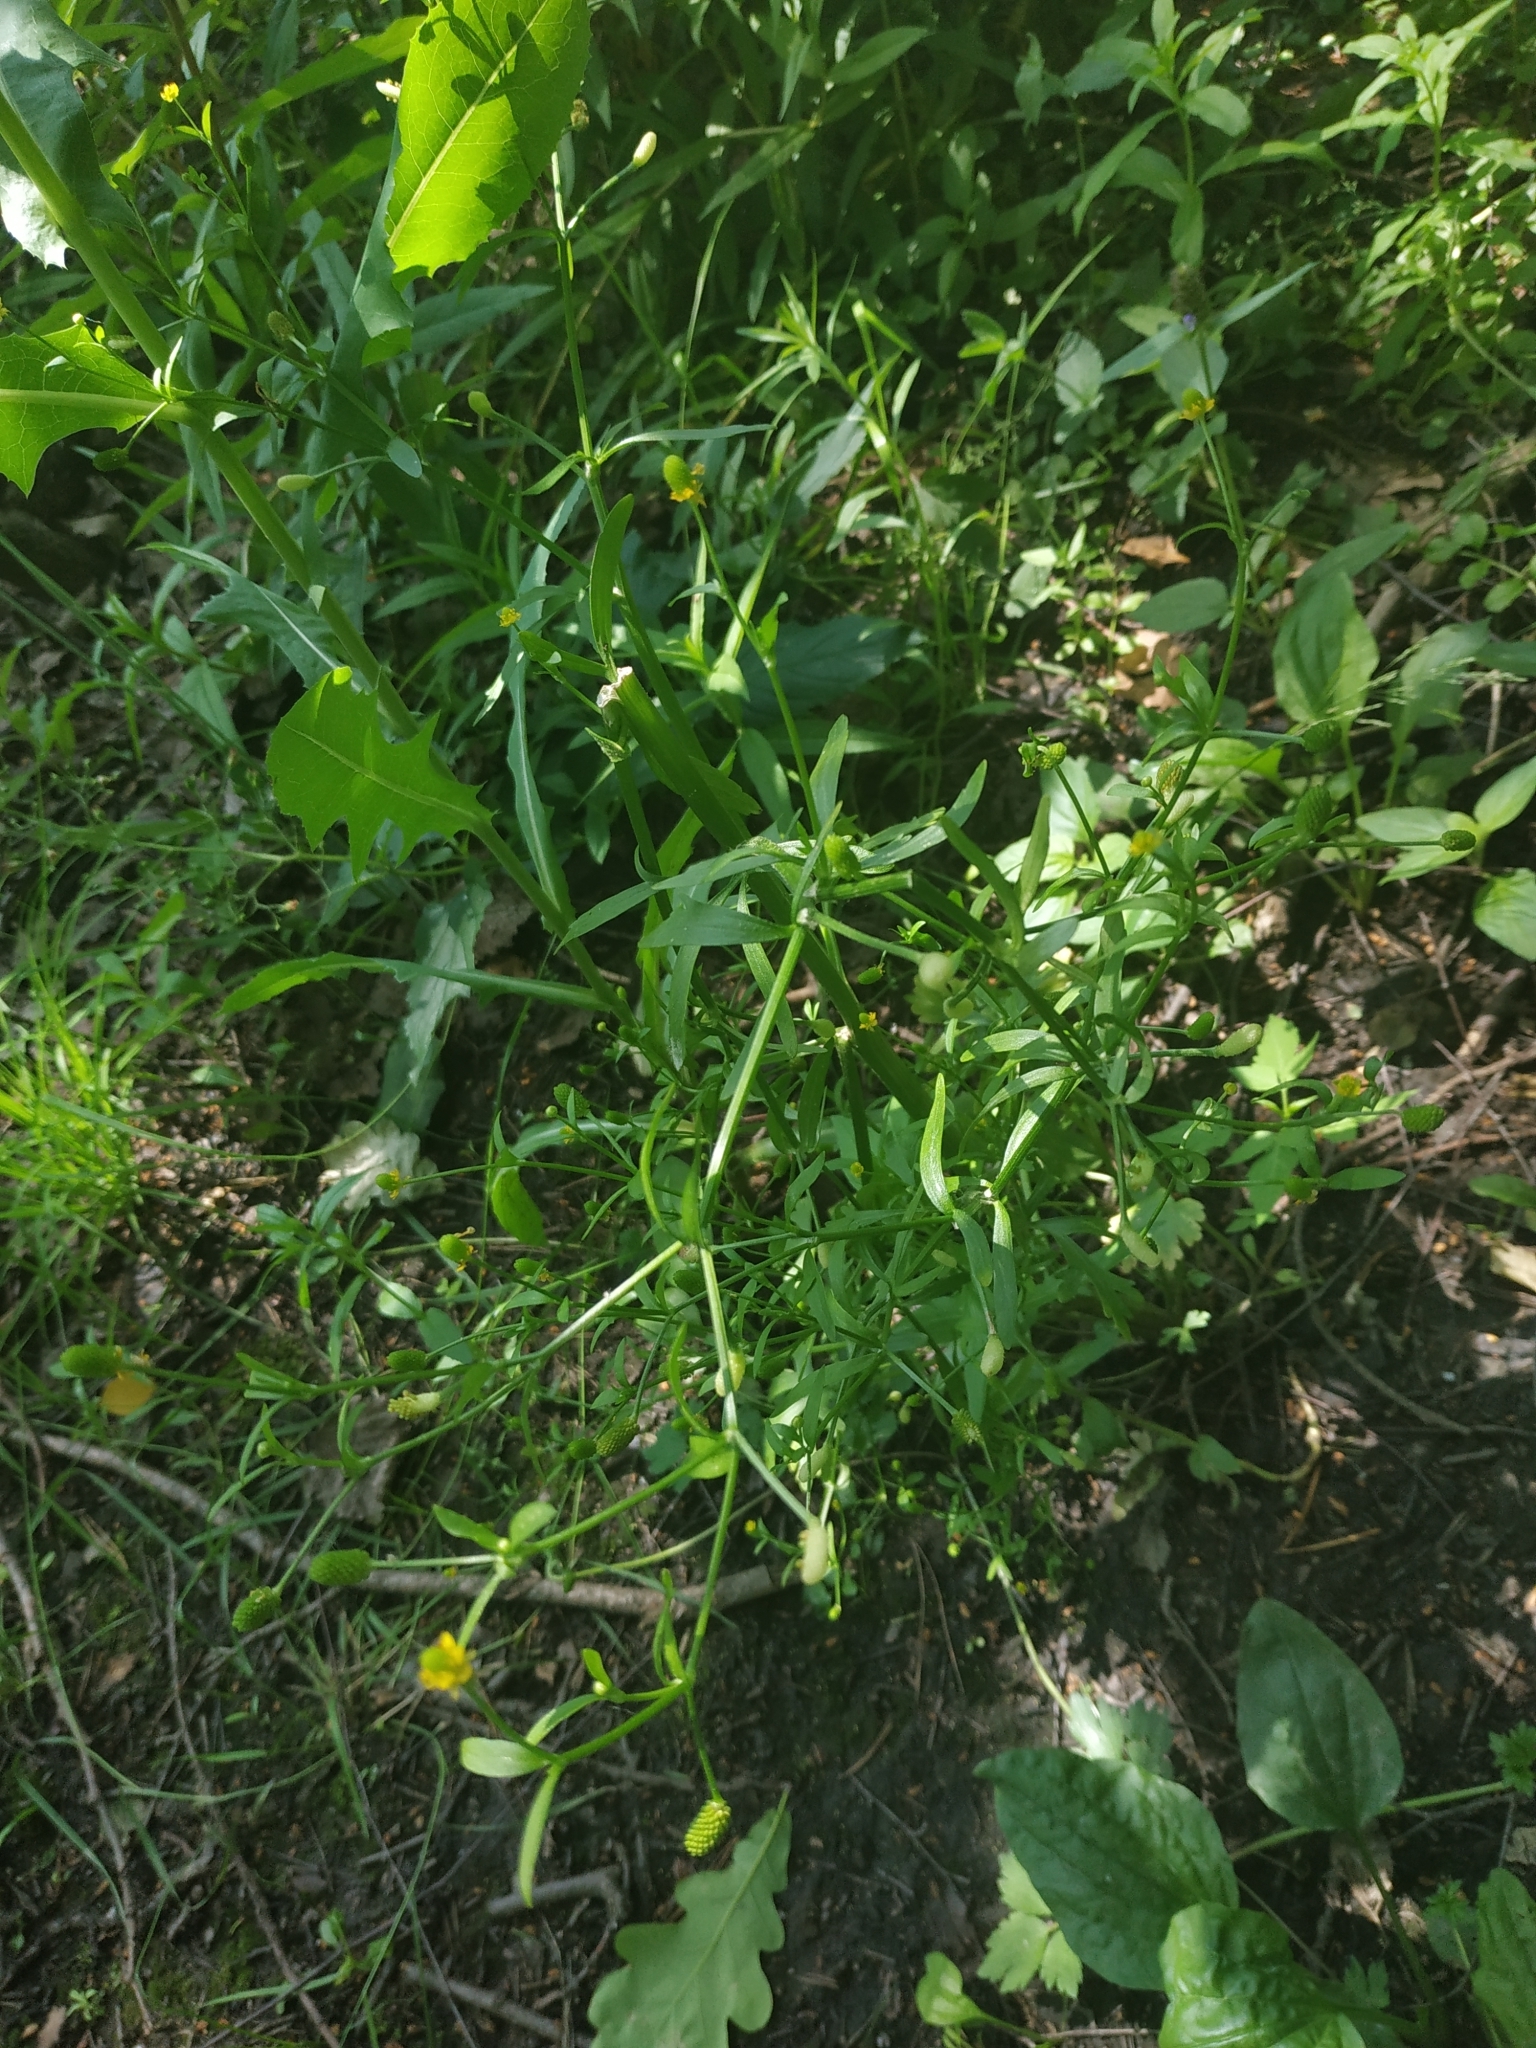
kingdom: Plantae
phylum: Tracheophyta
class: Magnoliopsida
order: Ranunculales
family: Ranunculaceae
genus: Ranunculus
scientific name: Ranunculus sceleratus
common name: Celery-leaved buttercup
